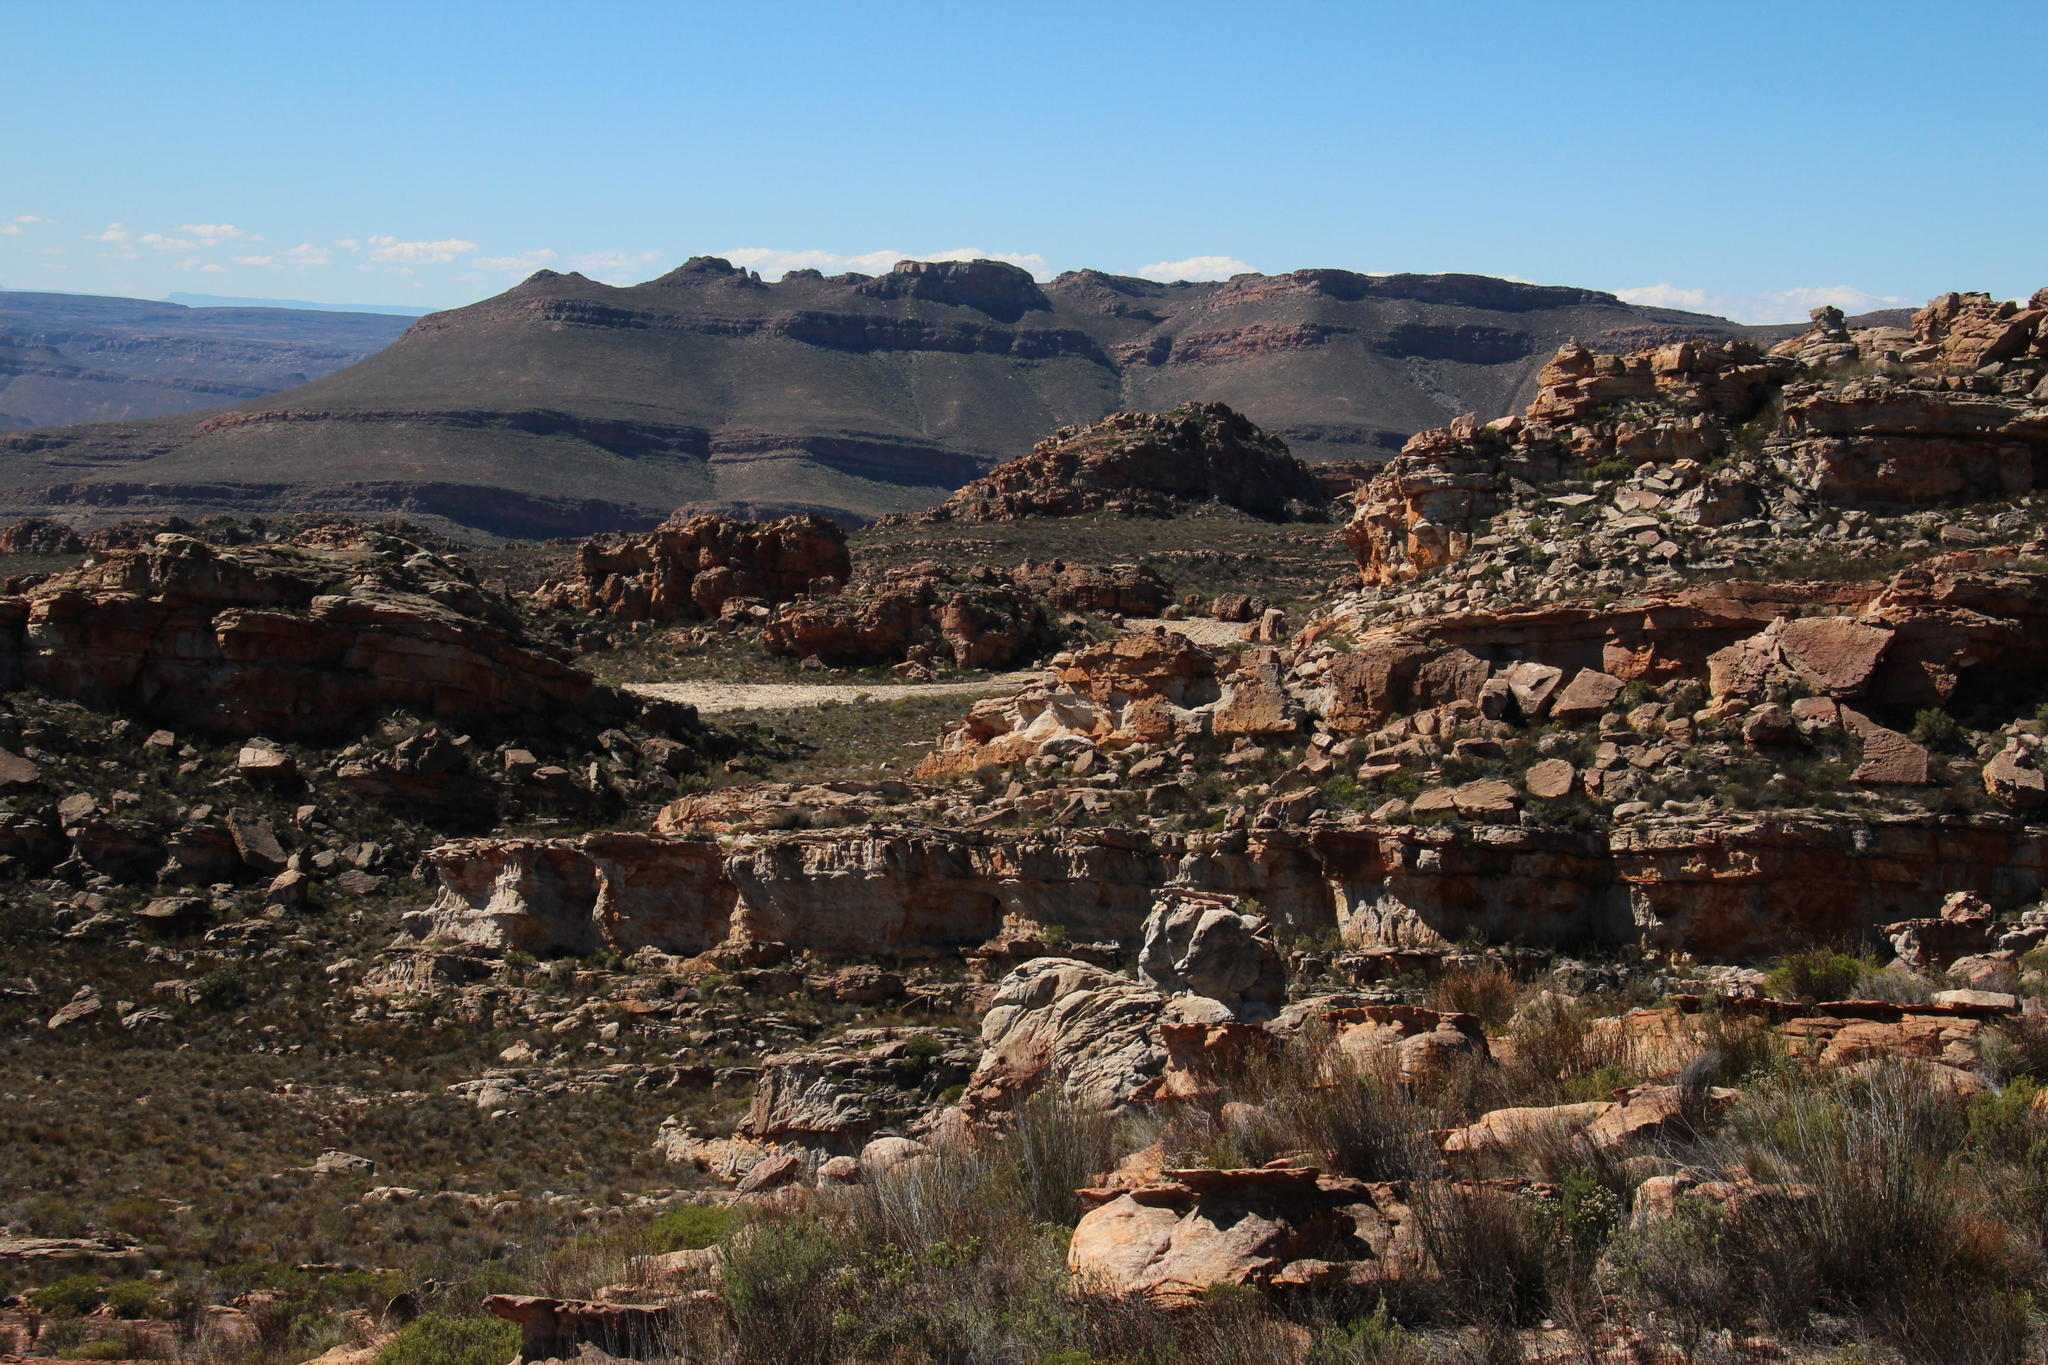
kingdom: Plantae
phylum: Tracheophyta
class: Magnoliopsida
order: Proteales
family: Proteaceae
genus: Serruria
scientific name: Serruria flava
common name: Spiderhead
